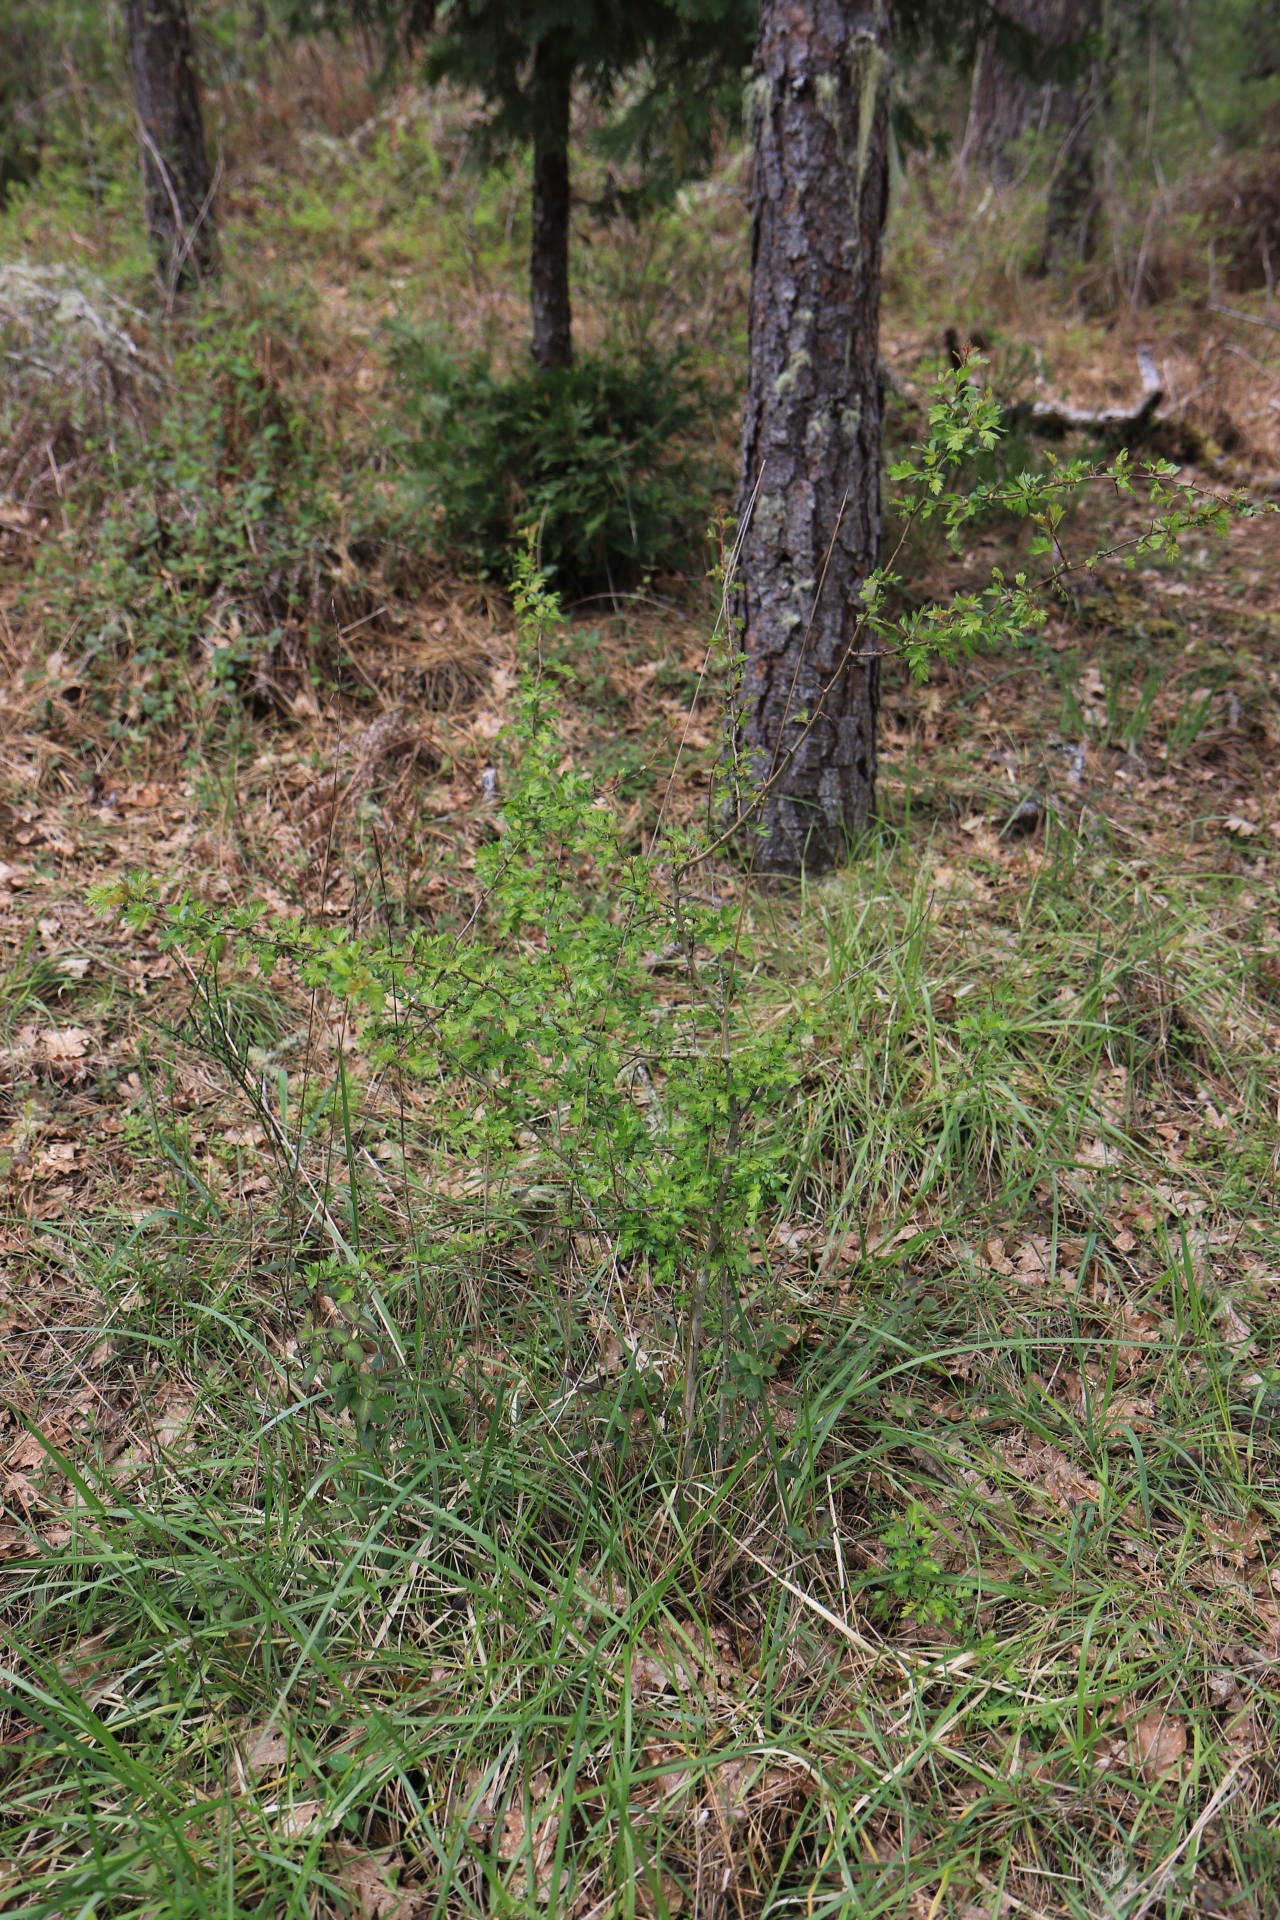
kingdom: Plantae
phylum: Tracheophyta
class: Magnoliopsida
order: Rosales
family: Rosaceae
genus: Crataegus
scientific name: Crataegus monogyna
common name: Hawthorn
